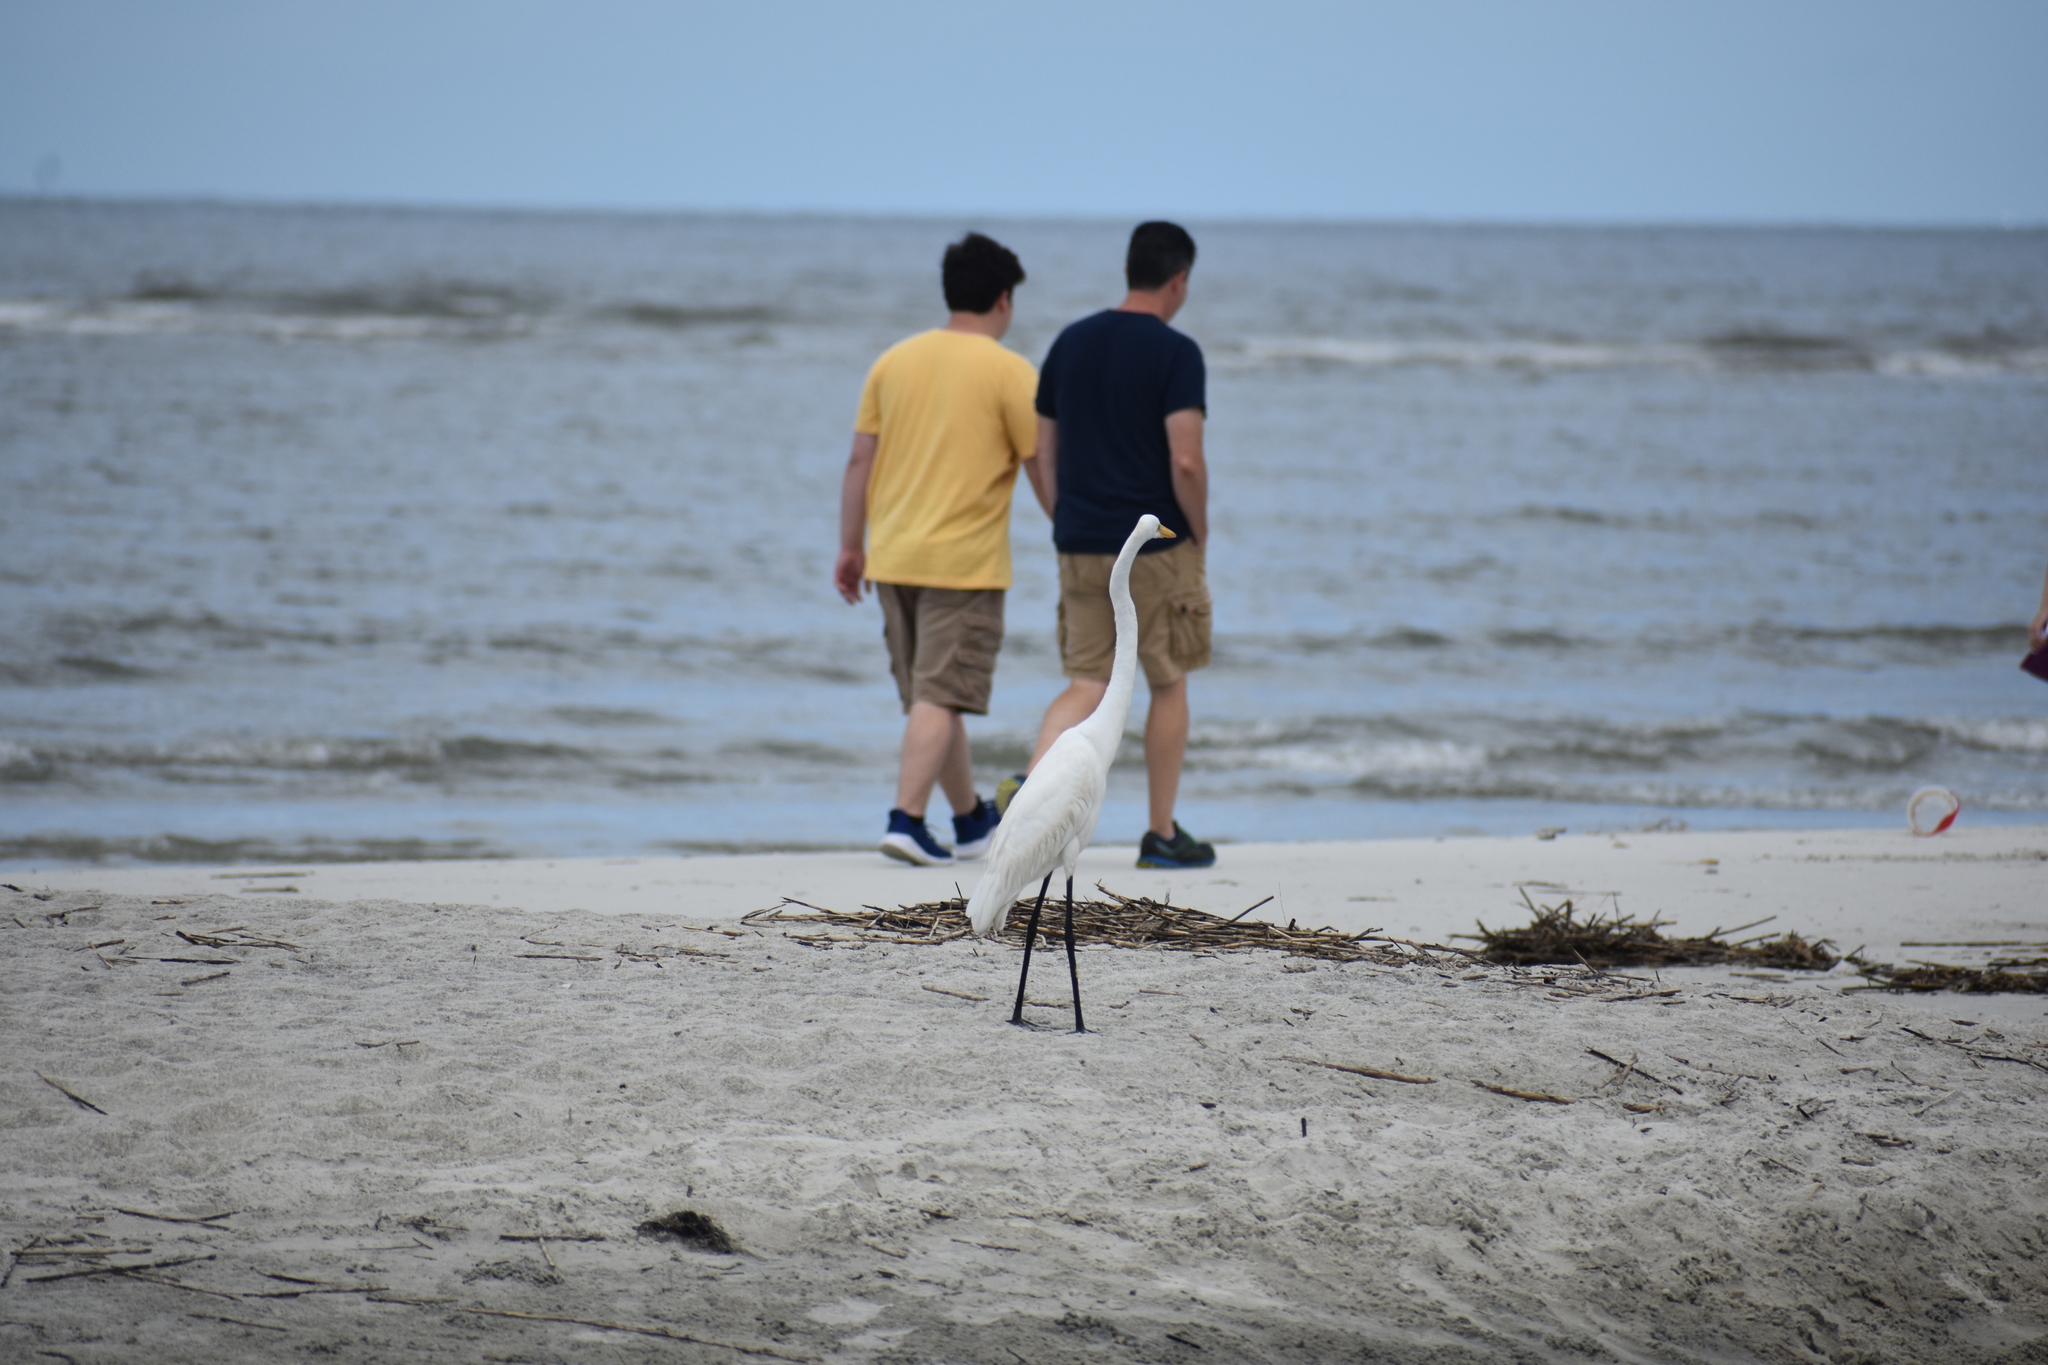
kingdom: Animalia
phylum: Chordata
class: Aves
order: Pelecaniformes
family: Ardeidae
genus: Ardea
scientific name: Ardea alba
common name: Great egret
